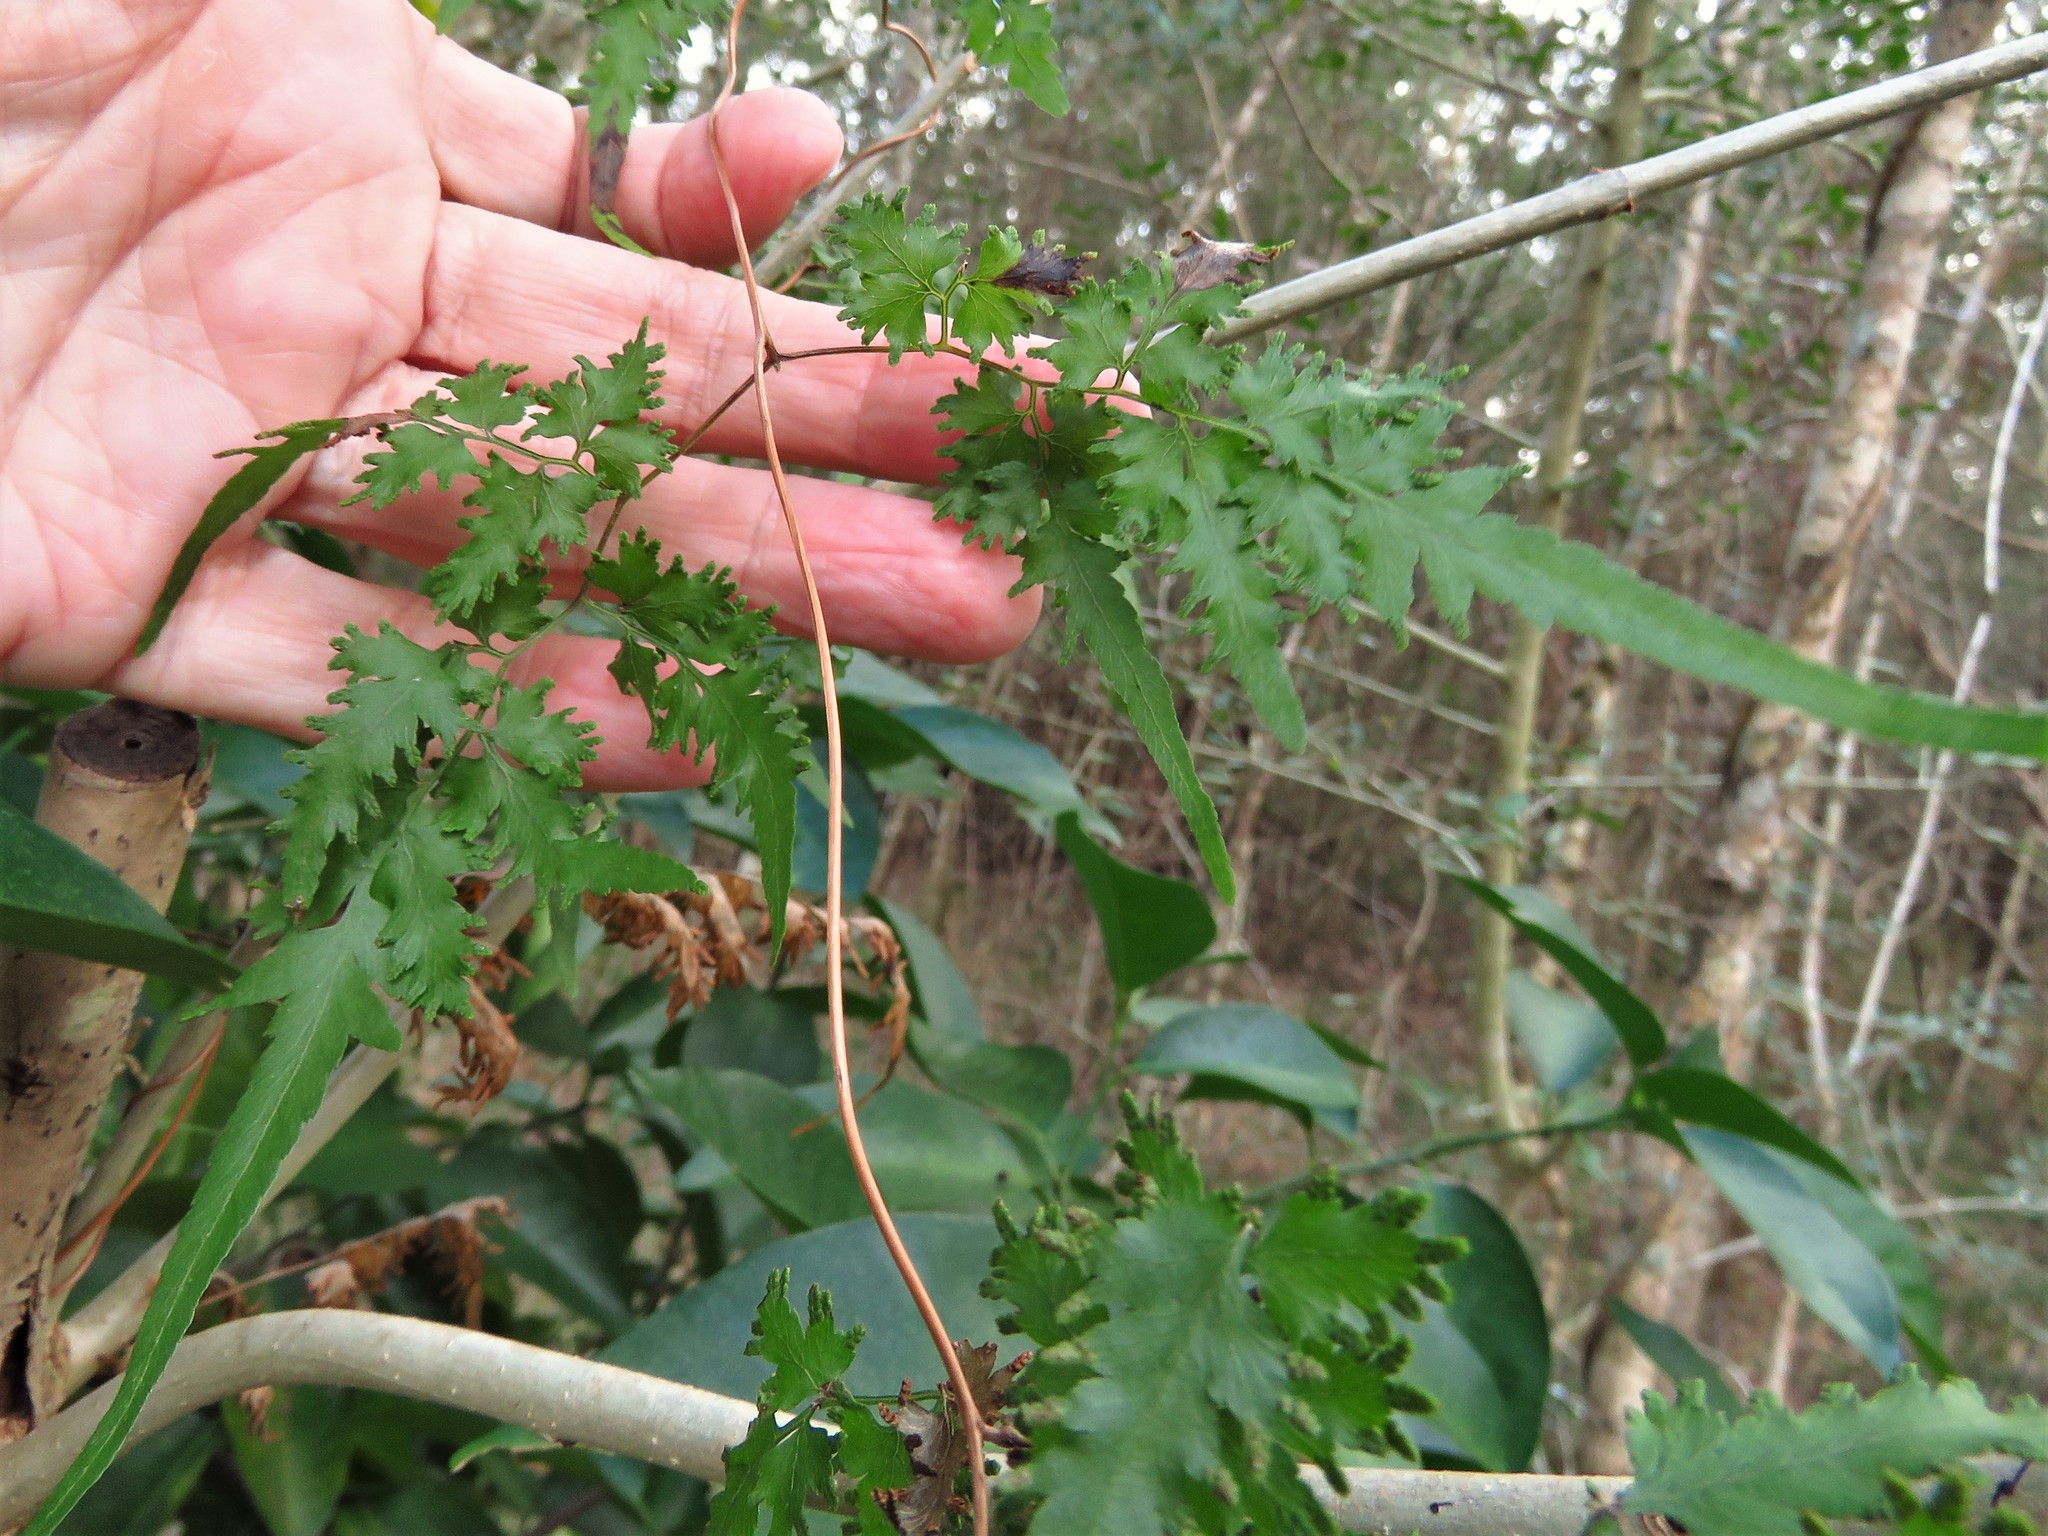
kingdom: Plantae
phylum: Tracheophyta
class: Polypodiopsida
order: Schizaeales
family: Lygodiaceae
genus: Lygodium
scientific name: Lygodium japonicum
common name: Japanese climbing fern
